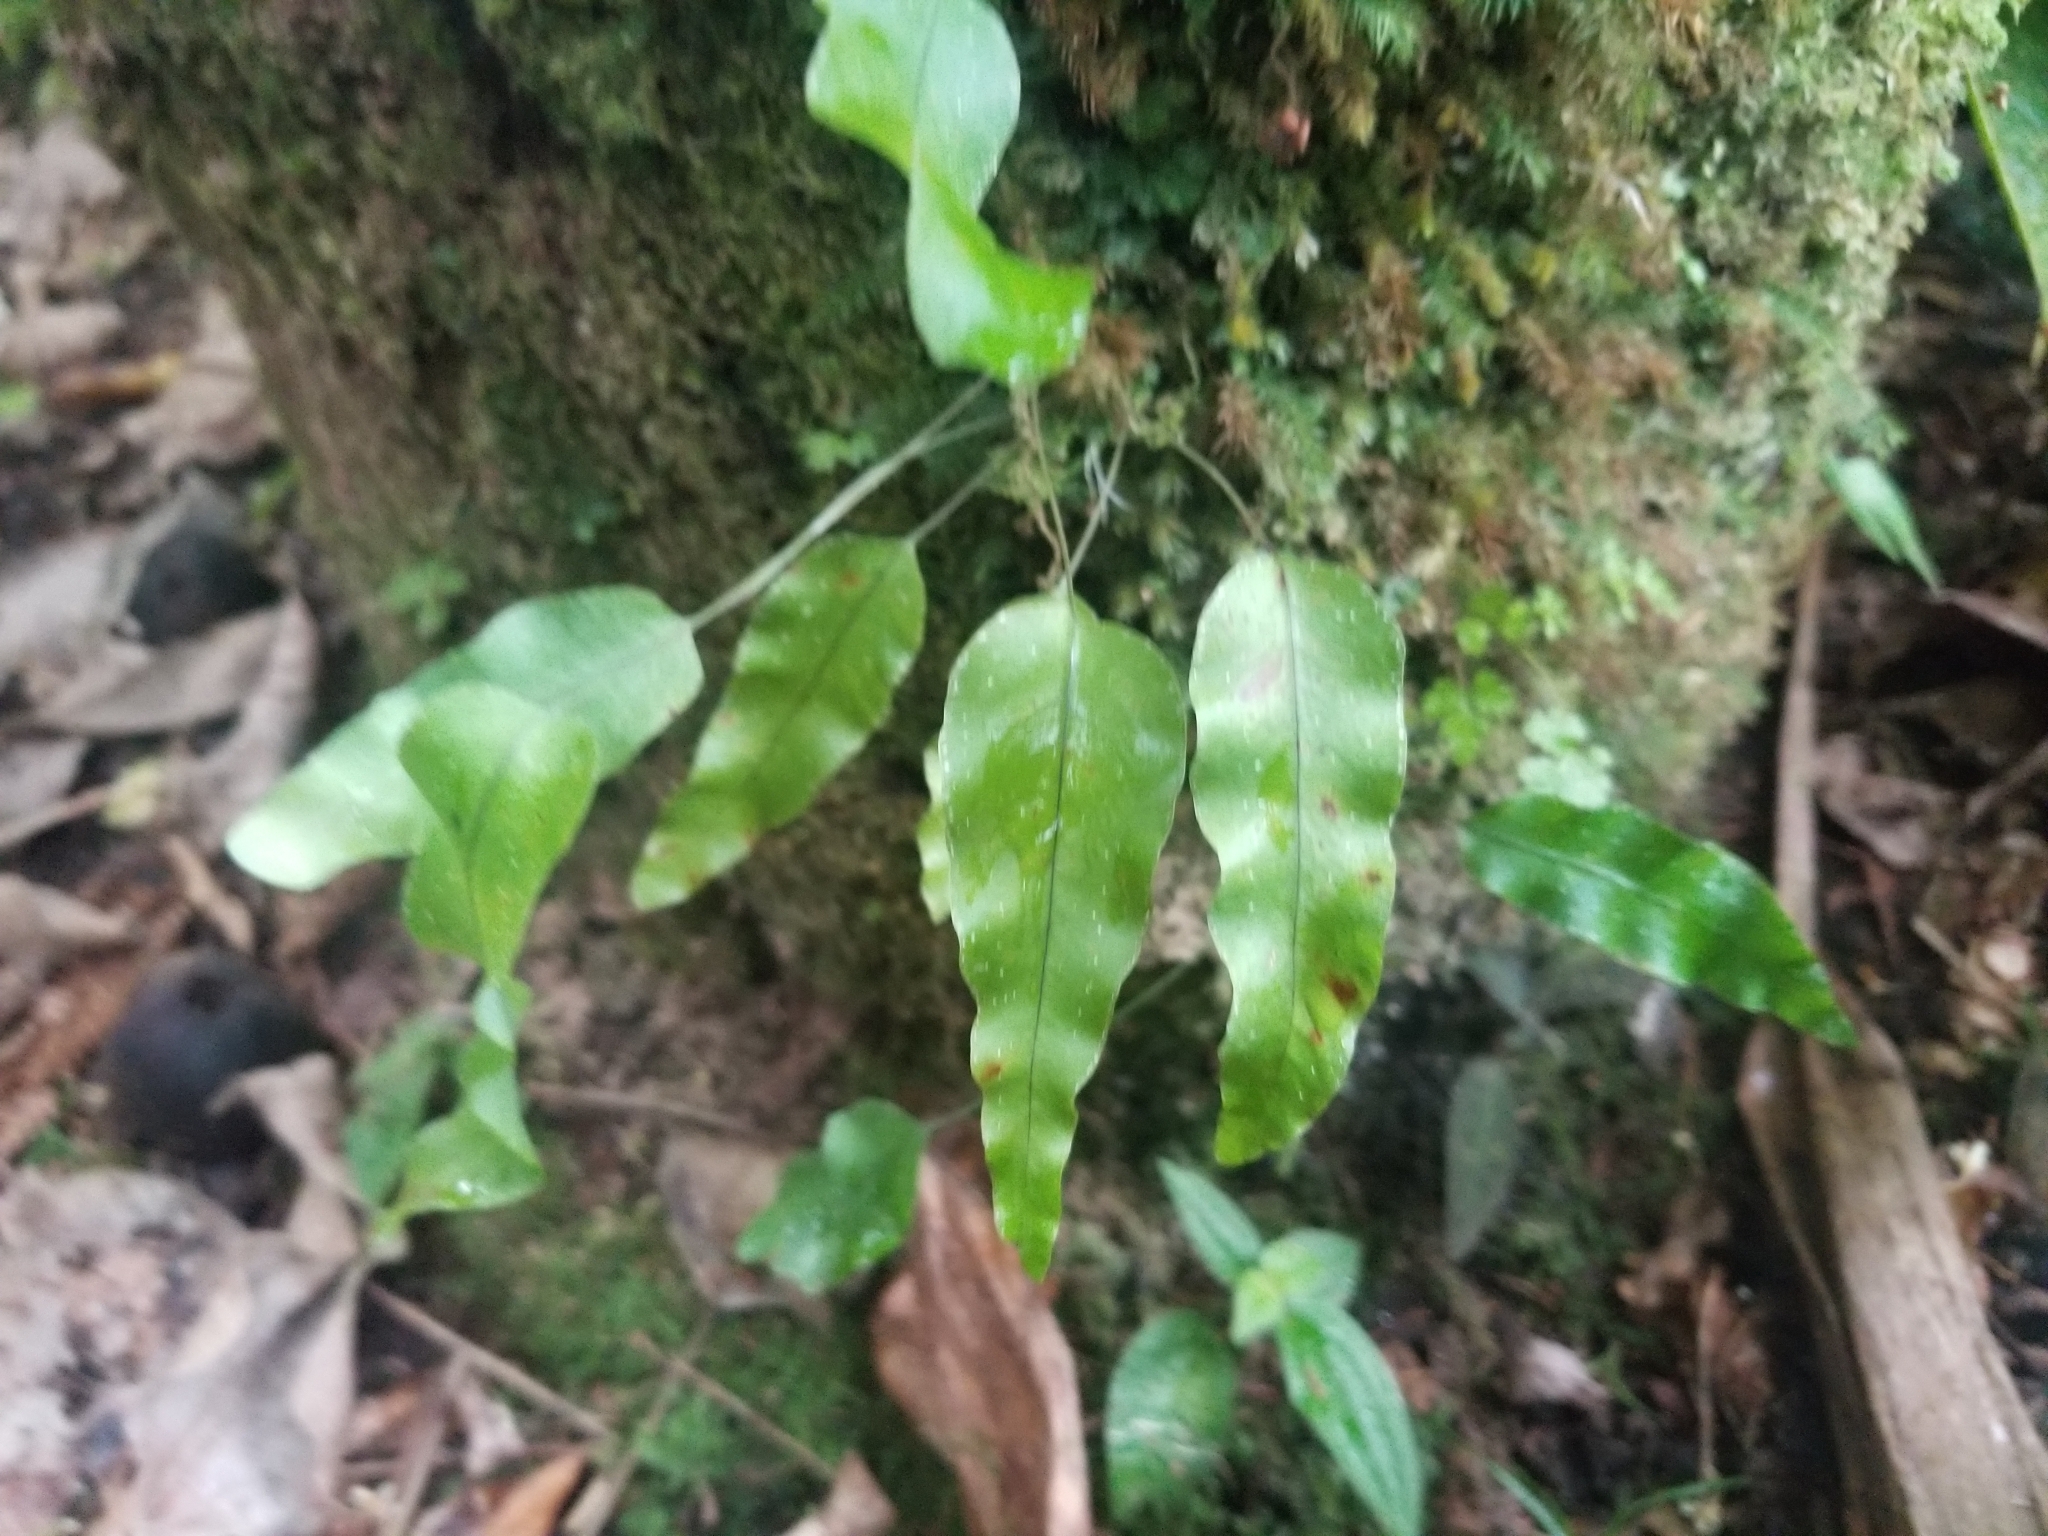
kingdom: Plantae
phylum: Tracheophyta
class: Polypodiopsida
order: Polypodiales
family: Polypodiaceae
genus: Phlebodium
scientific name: Phlebodium aureum
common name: Gold-foot fern
